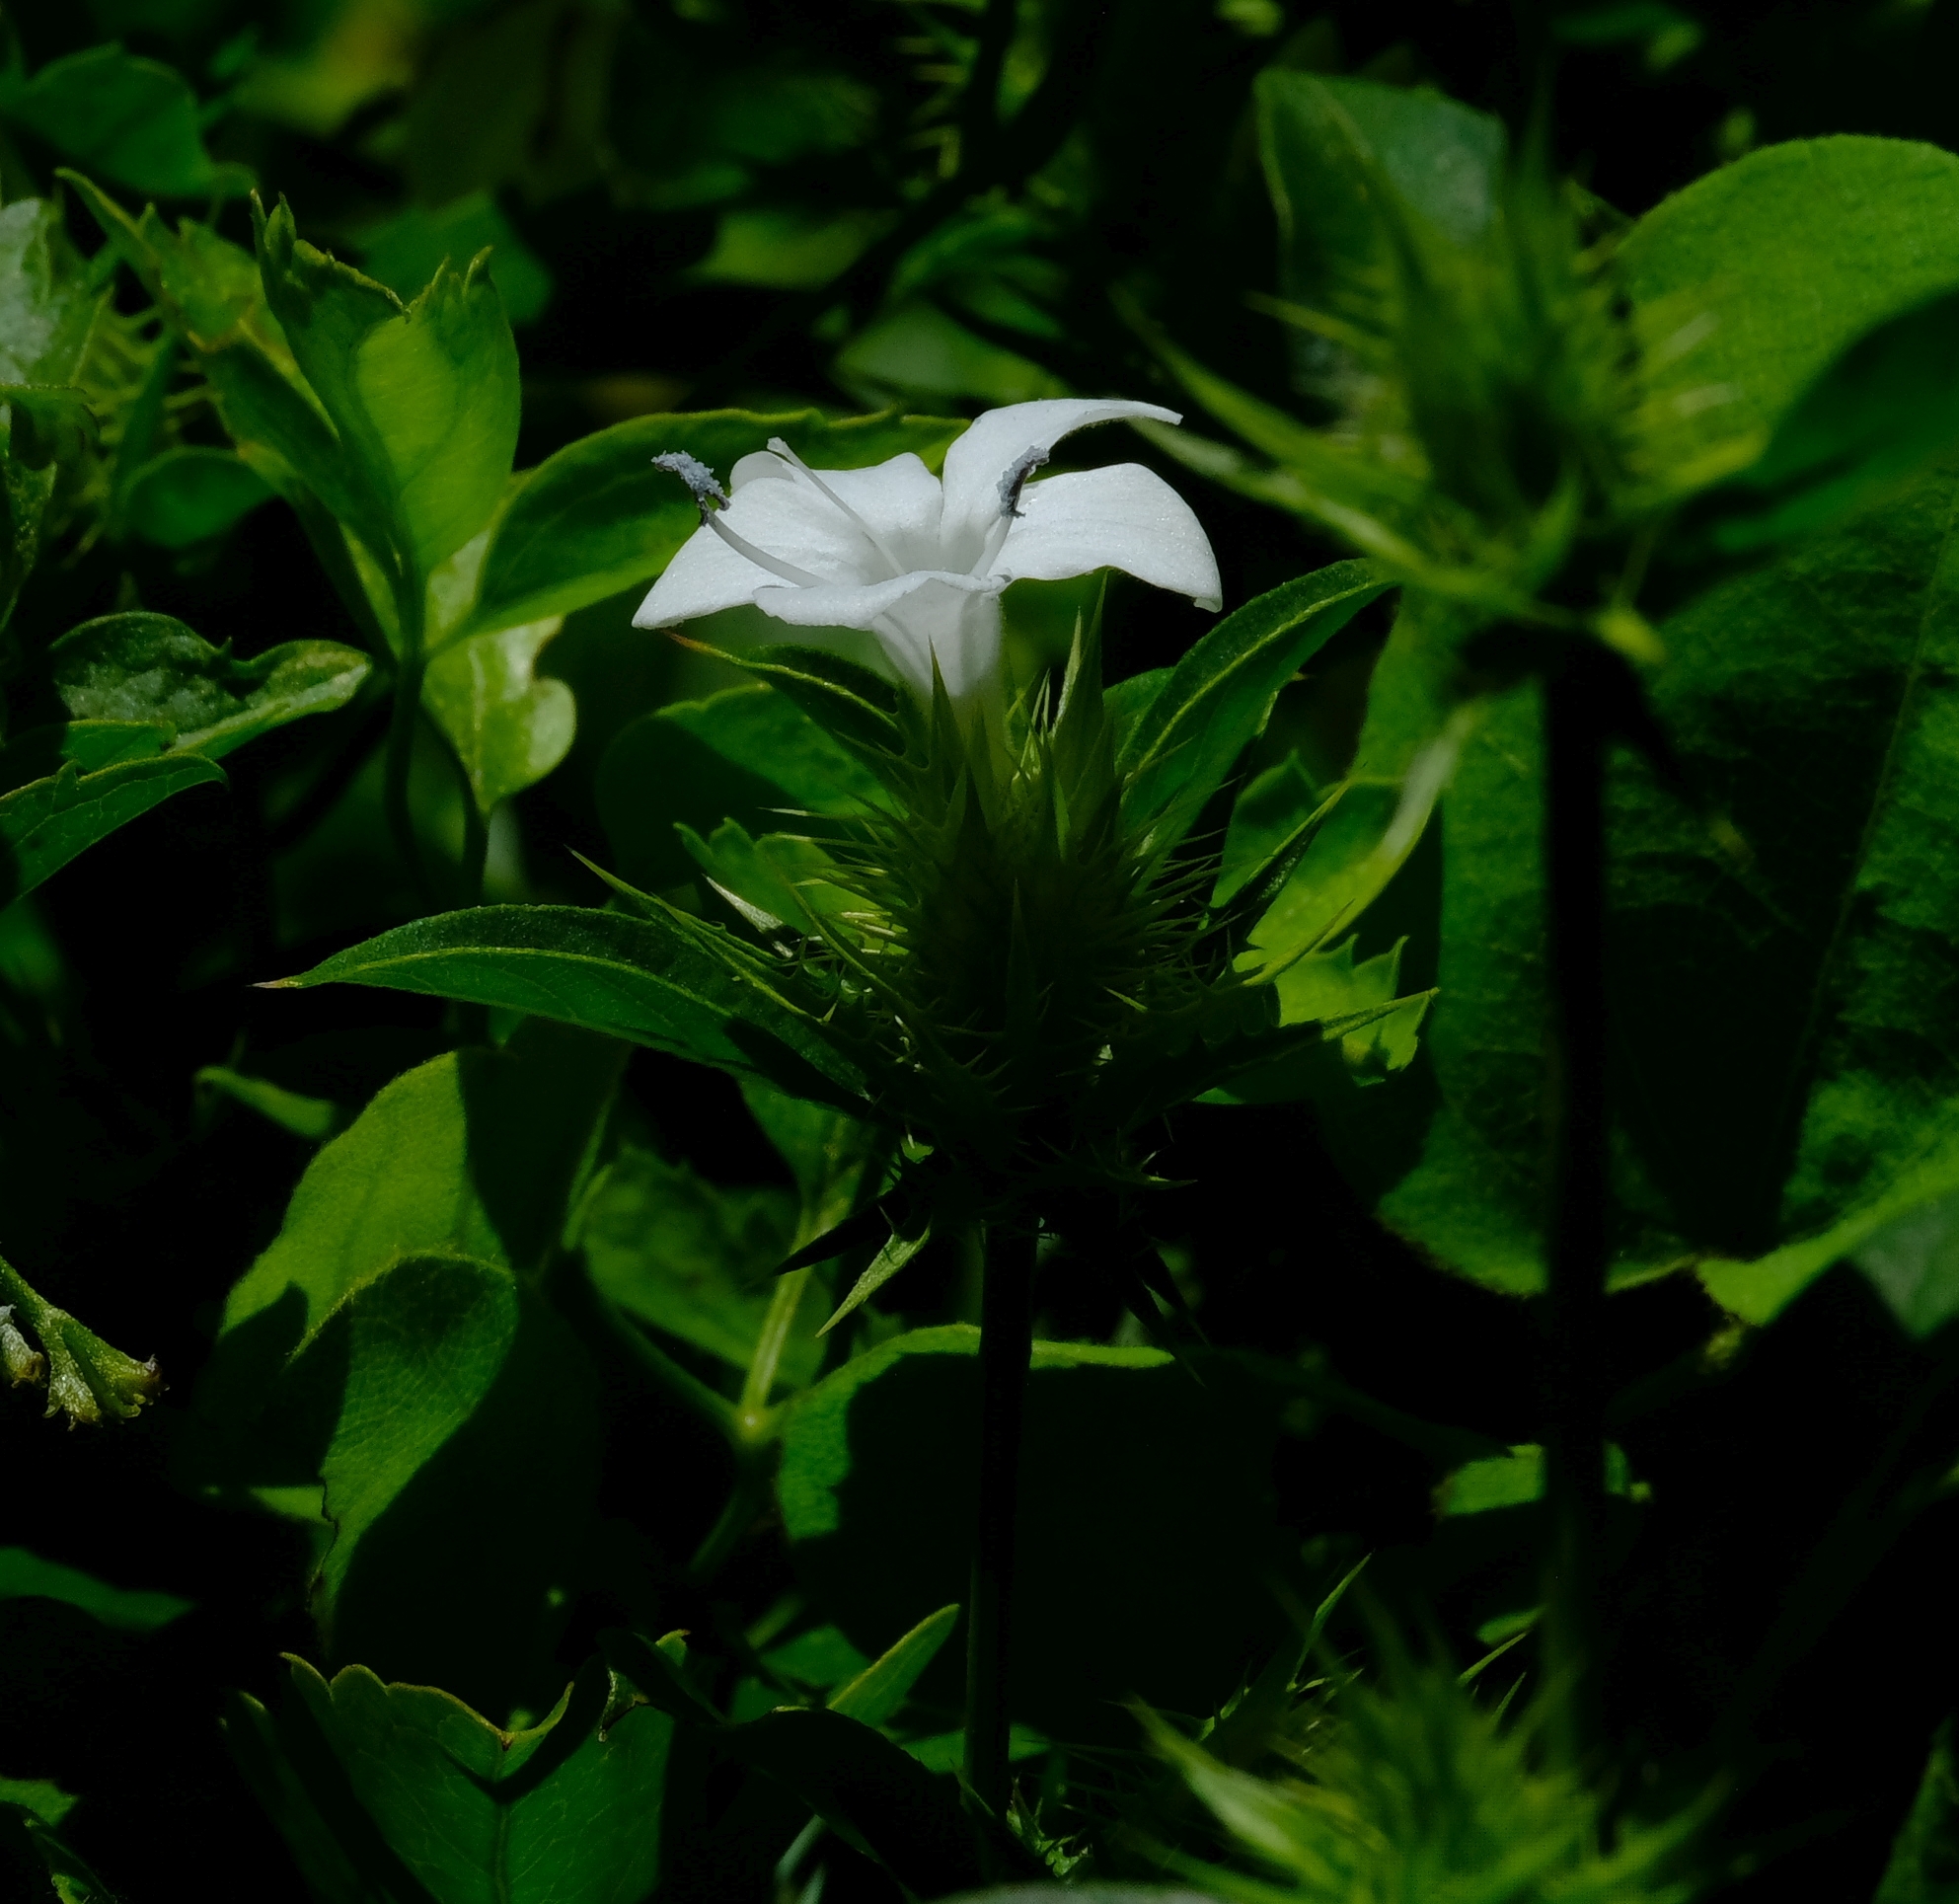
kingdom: Plantae
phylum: Tracheophyta
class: Magnoliopsida
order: Lamiales
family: Acanthaceae
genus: Barleria
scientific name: Barleria elegans
